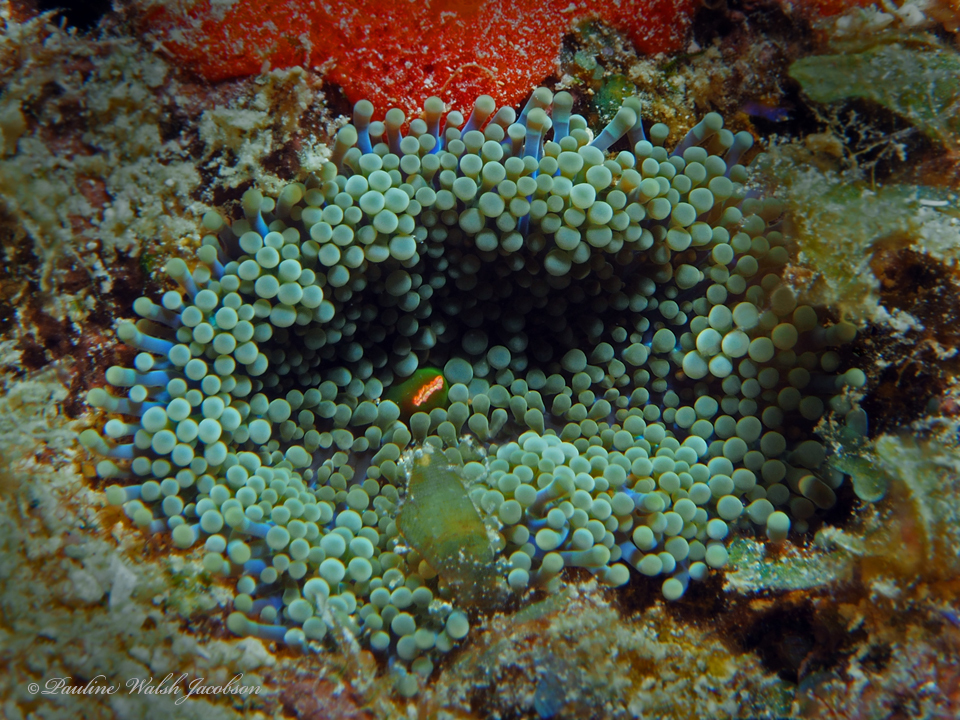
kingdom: Animalia
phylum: Cnidaria
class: Anthozoa
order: Corallimorpharia
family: Ricordeidae
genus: Ricordea
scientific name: Ricordea florida
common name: False coral
